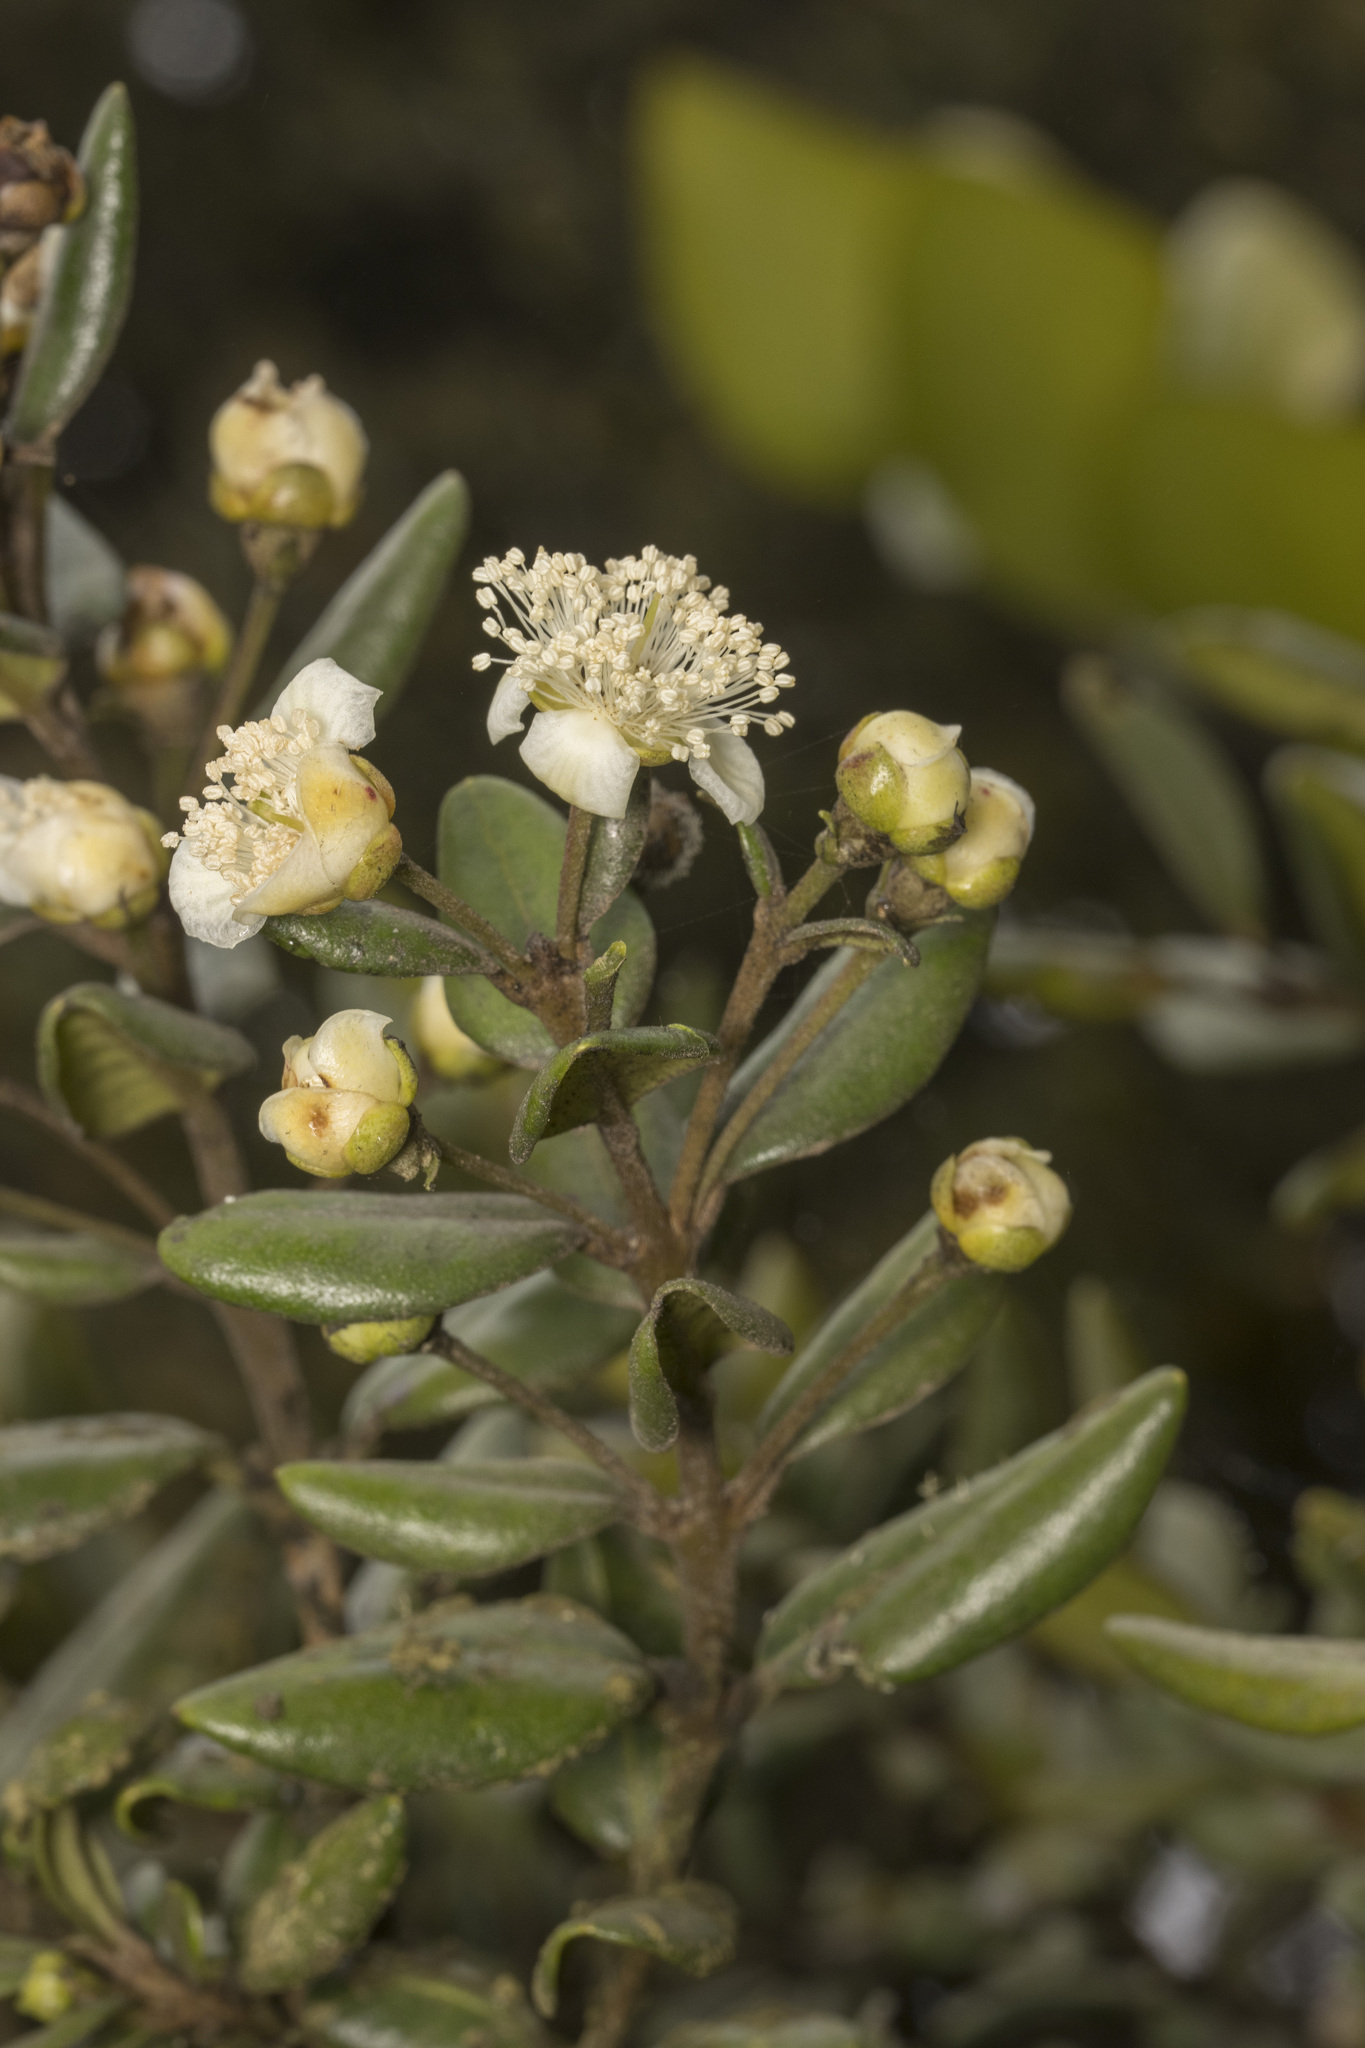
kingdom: Plantae
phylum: Tracheophyta
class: Magnoliopsida
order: Myrtales
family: Myrtaceae
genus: Myrceugenia
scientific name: Myrceugenia correifolia
